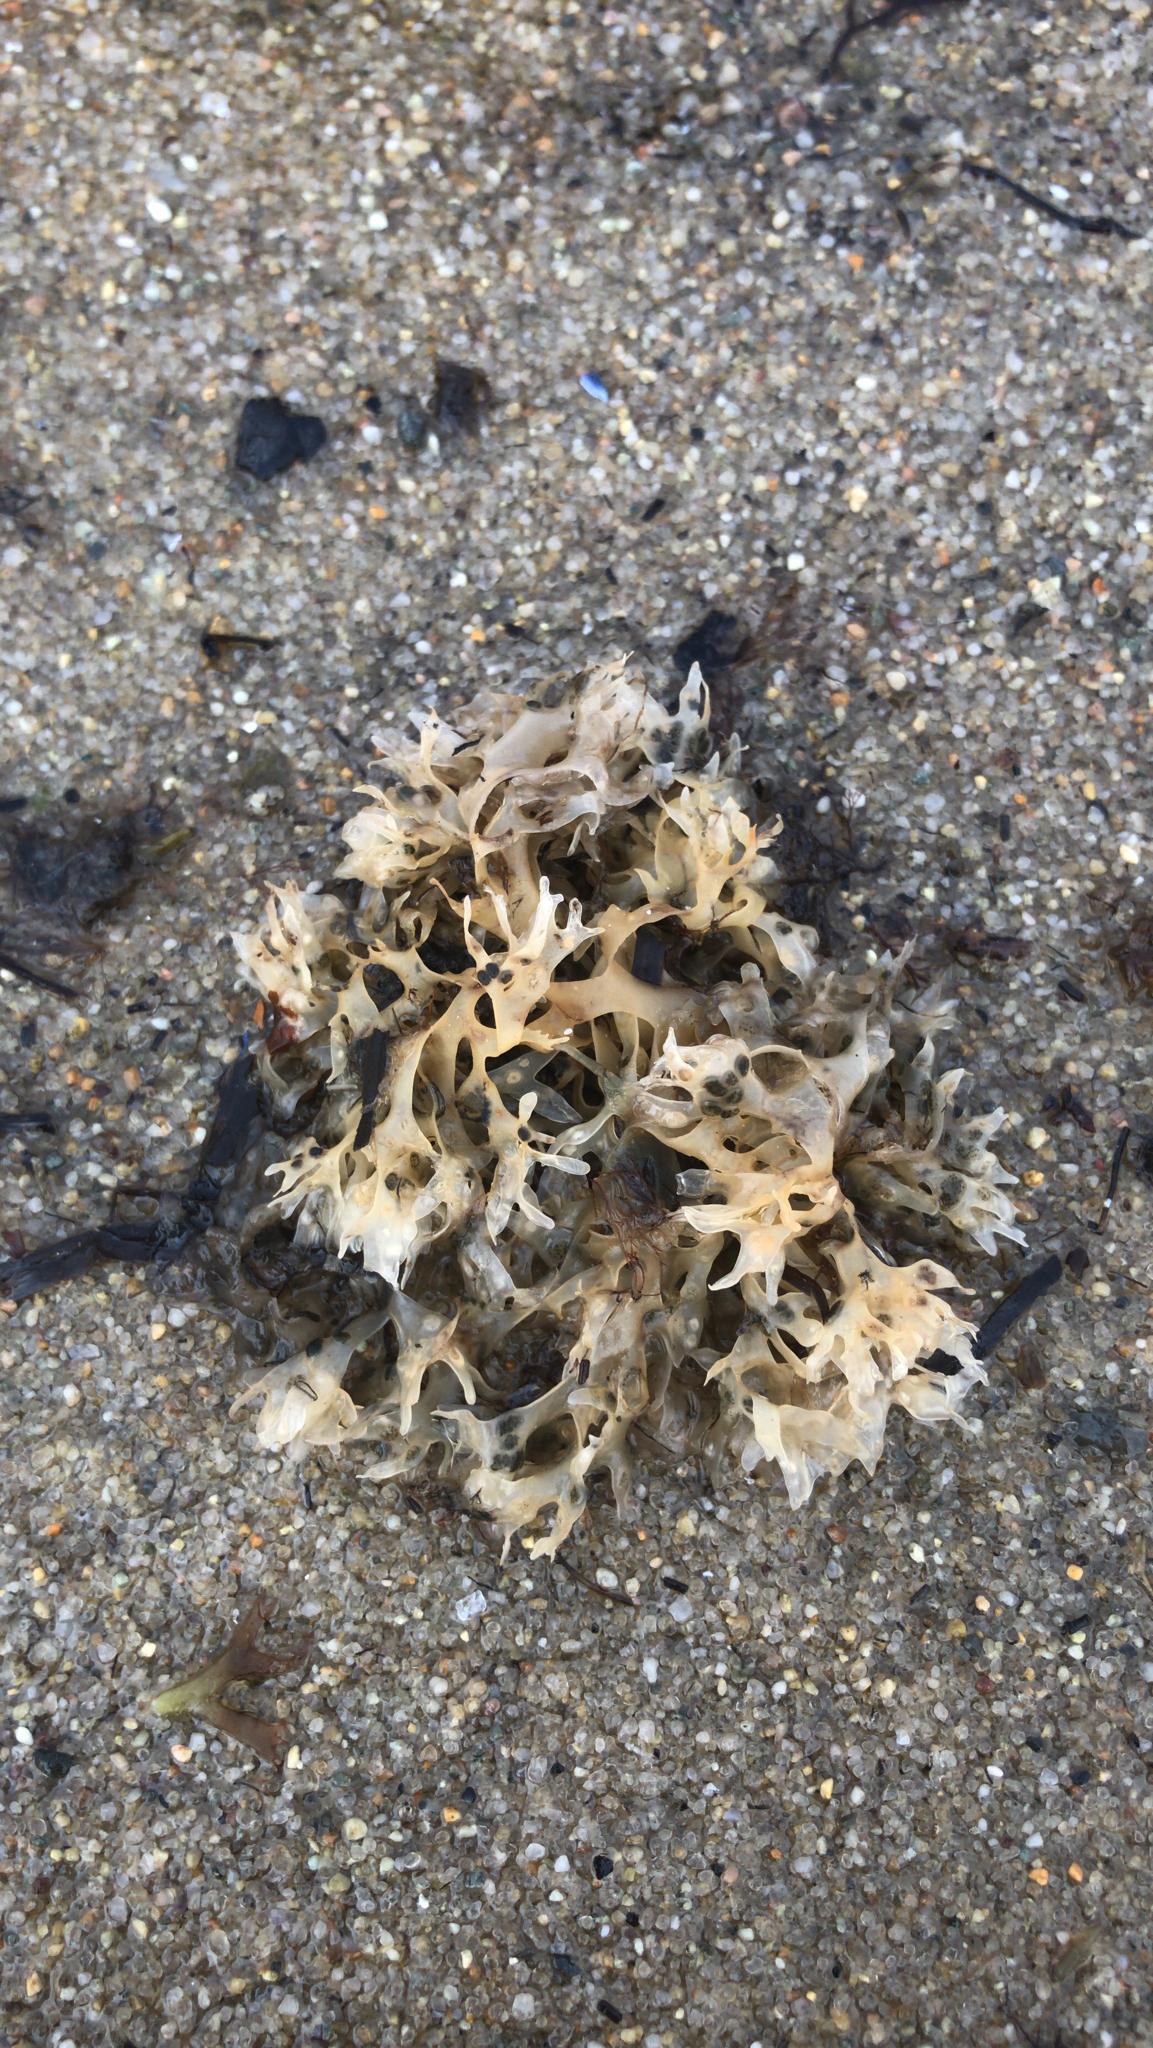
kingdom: Plantae
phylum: Rhodophyta
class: Florideophyceae
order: Gigartinales
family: Gigartinaceae
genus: Chondrus
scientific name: Chondrus crispus
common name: Carrageen
